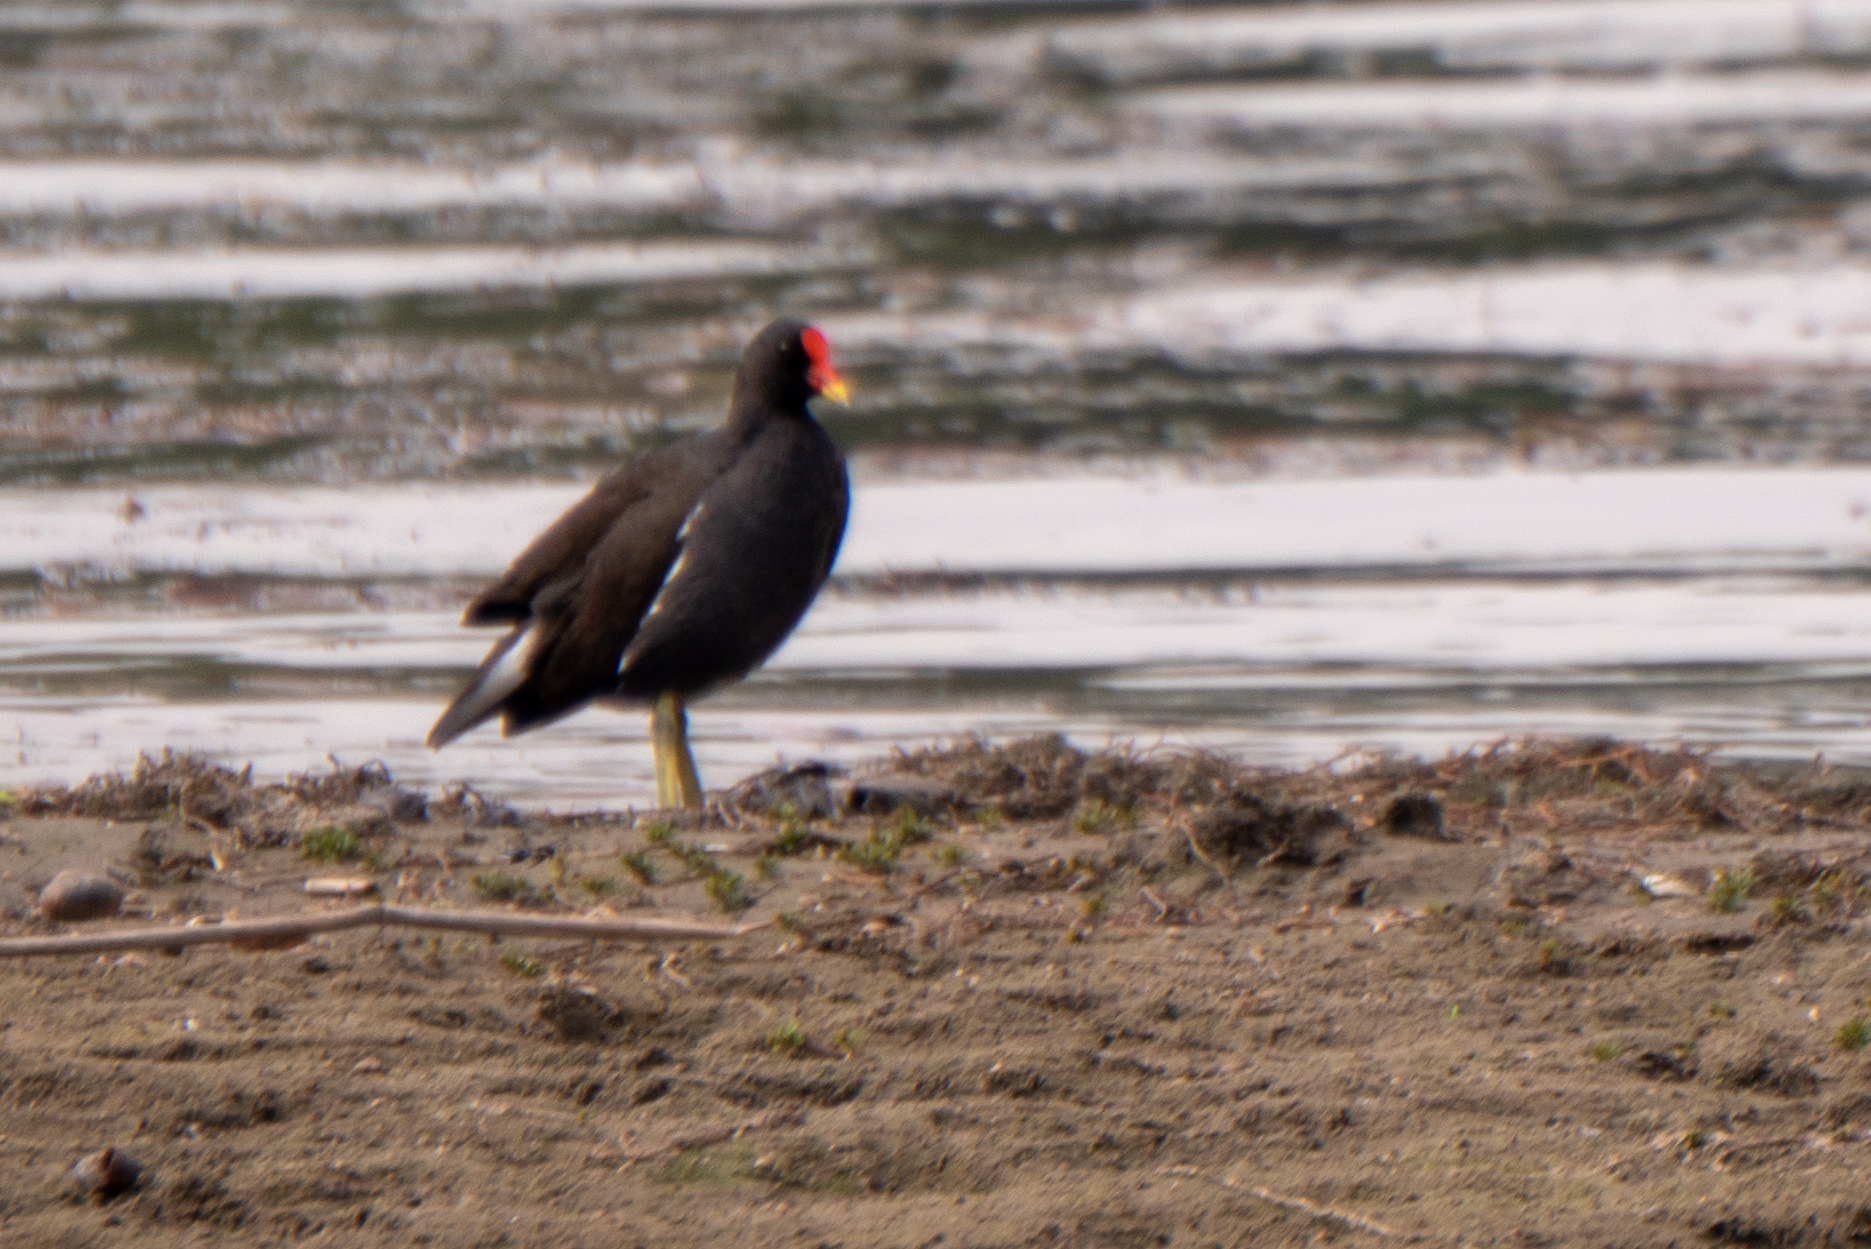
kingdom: Animalia
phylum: Chordata
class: Aves
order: Gruiformes
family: Rallidae
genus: Gallinula
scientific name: Gallinula chloropus
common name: Common moorhen
